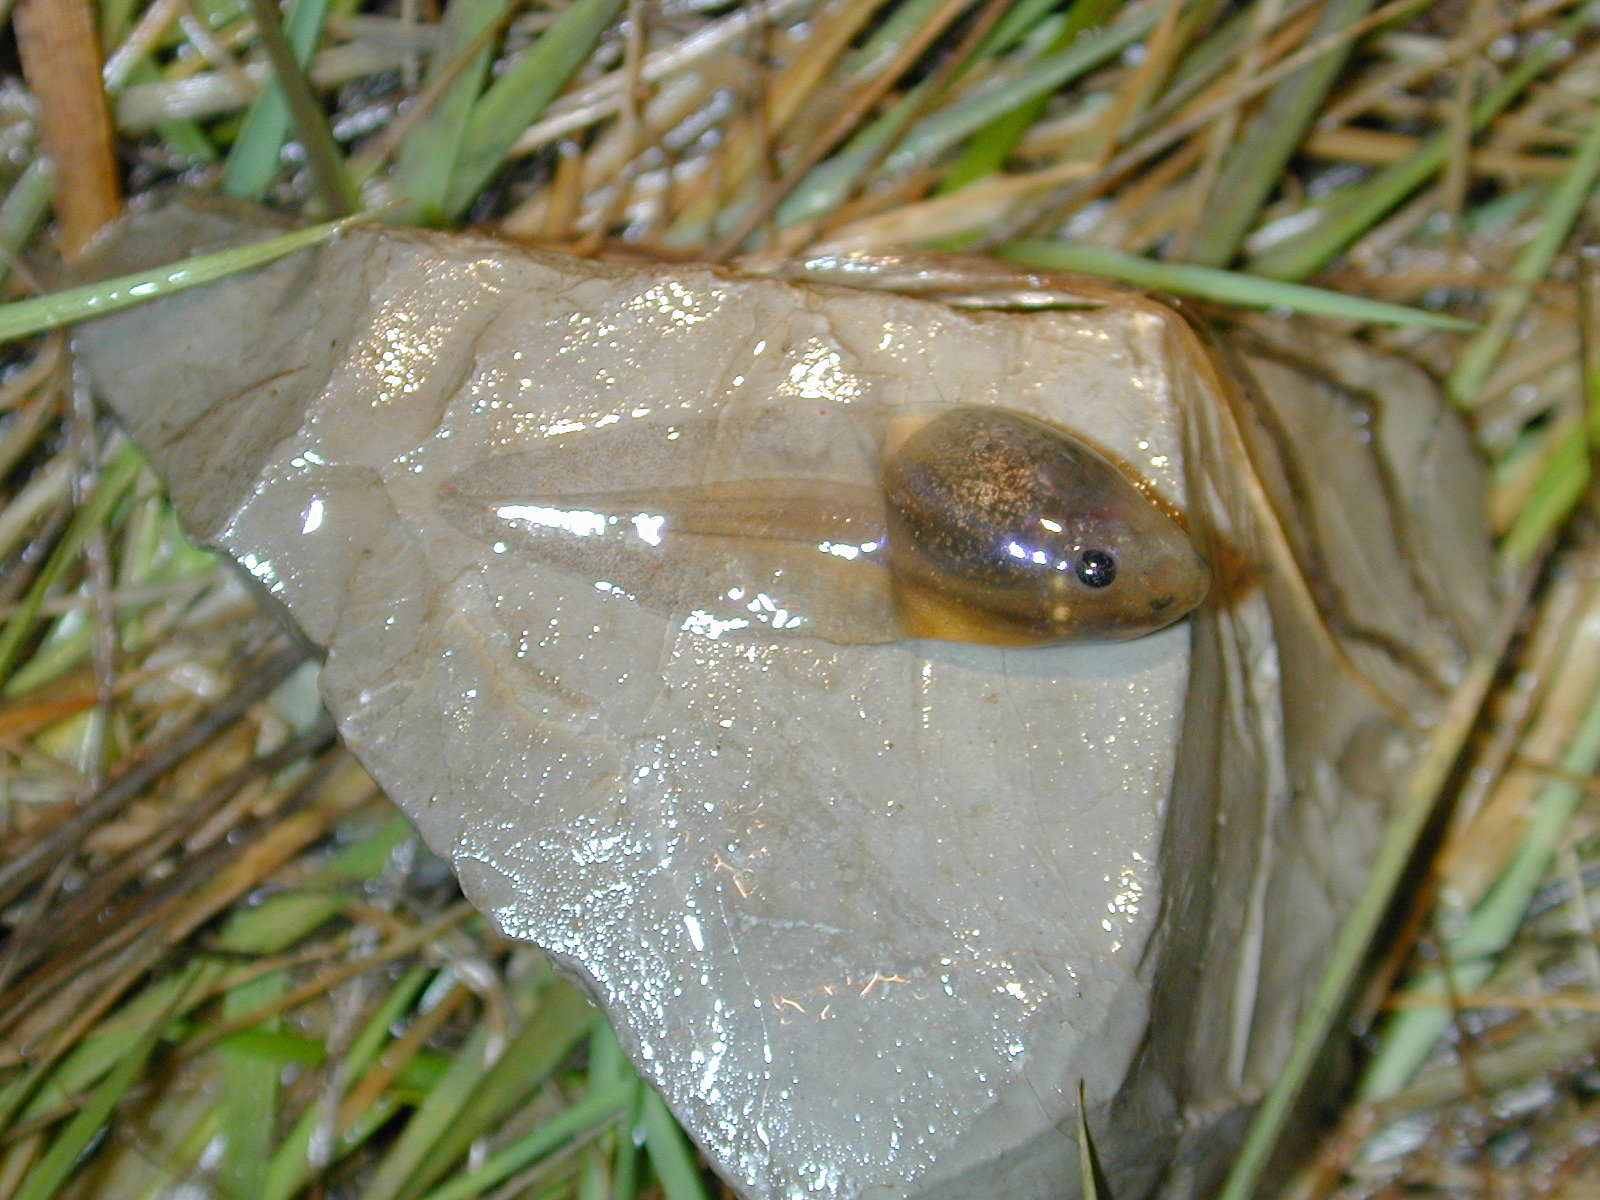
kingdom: Animalia
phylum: Chordata
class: Amphibia
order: Anura
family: Pelodytidae
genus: Pelodytes
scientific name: Pelodytes punctatus
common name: Parsley frog
